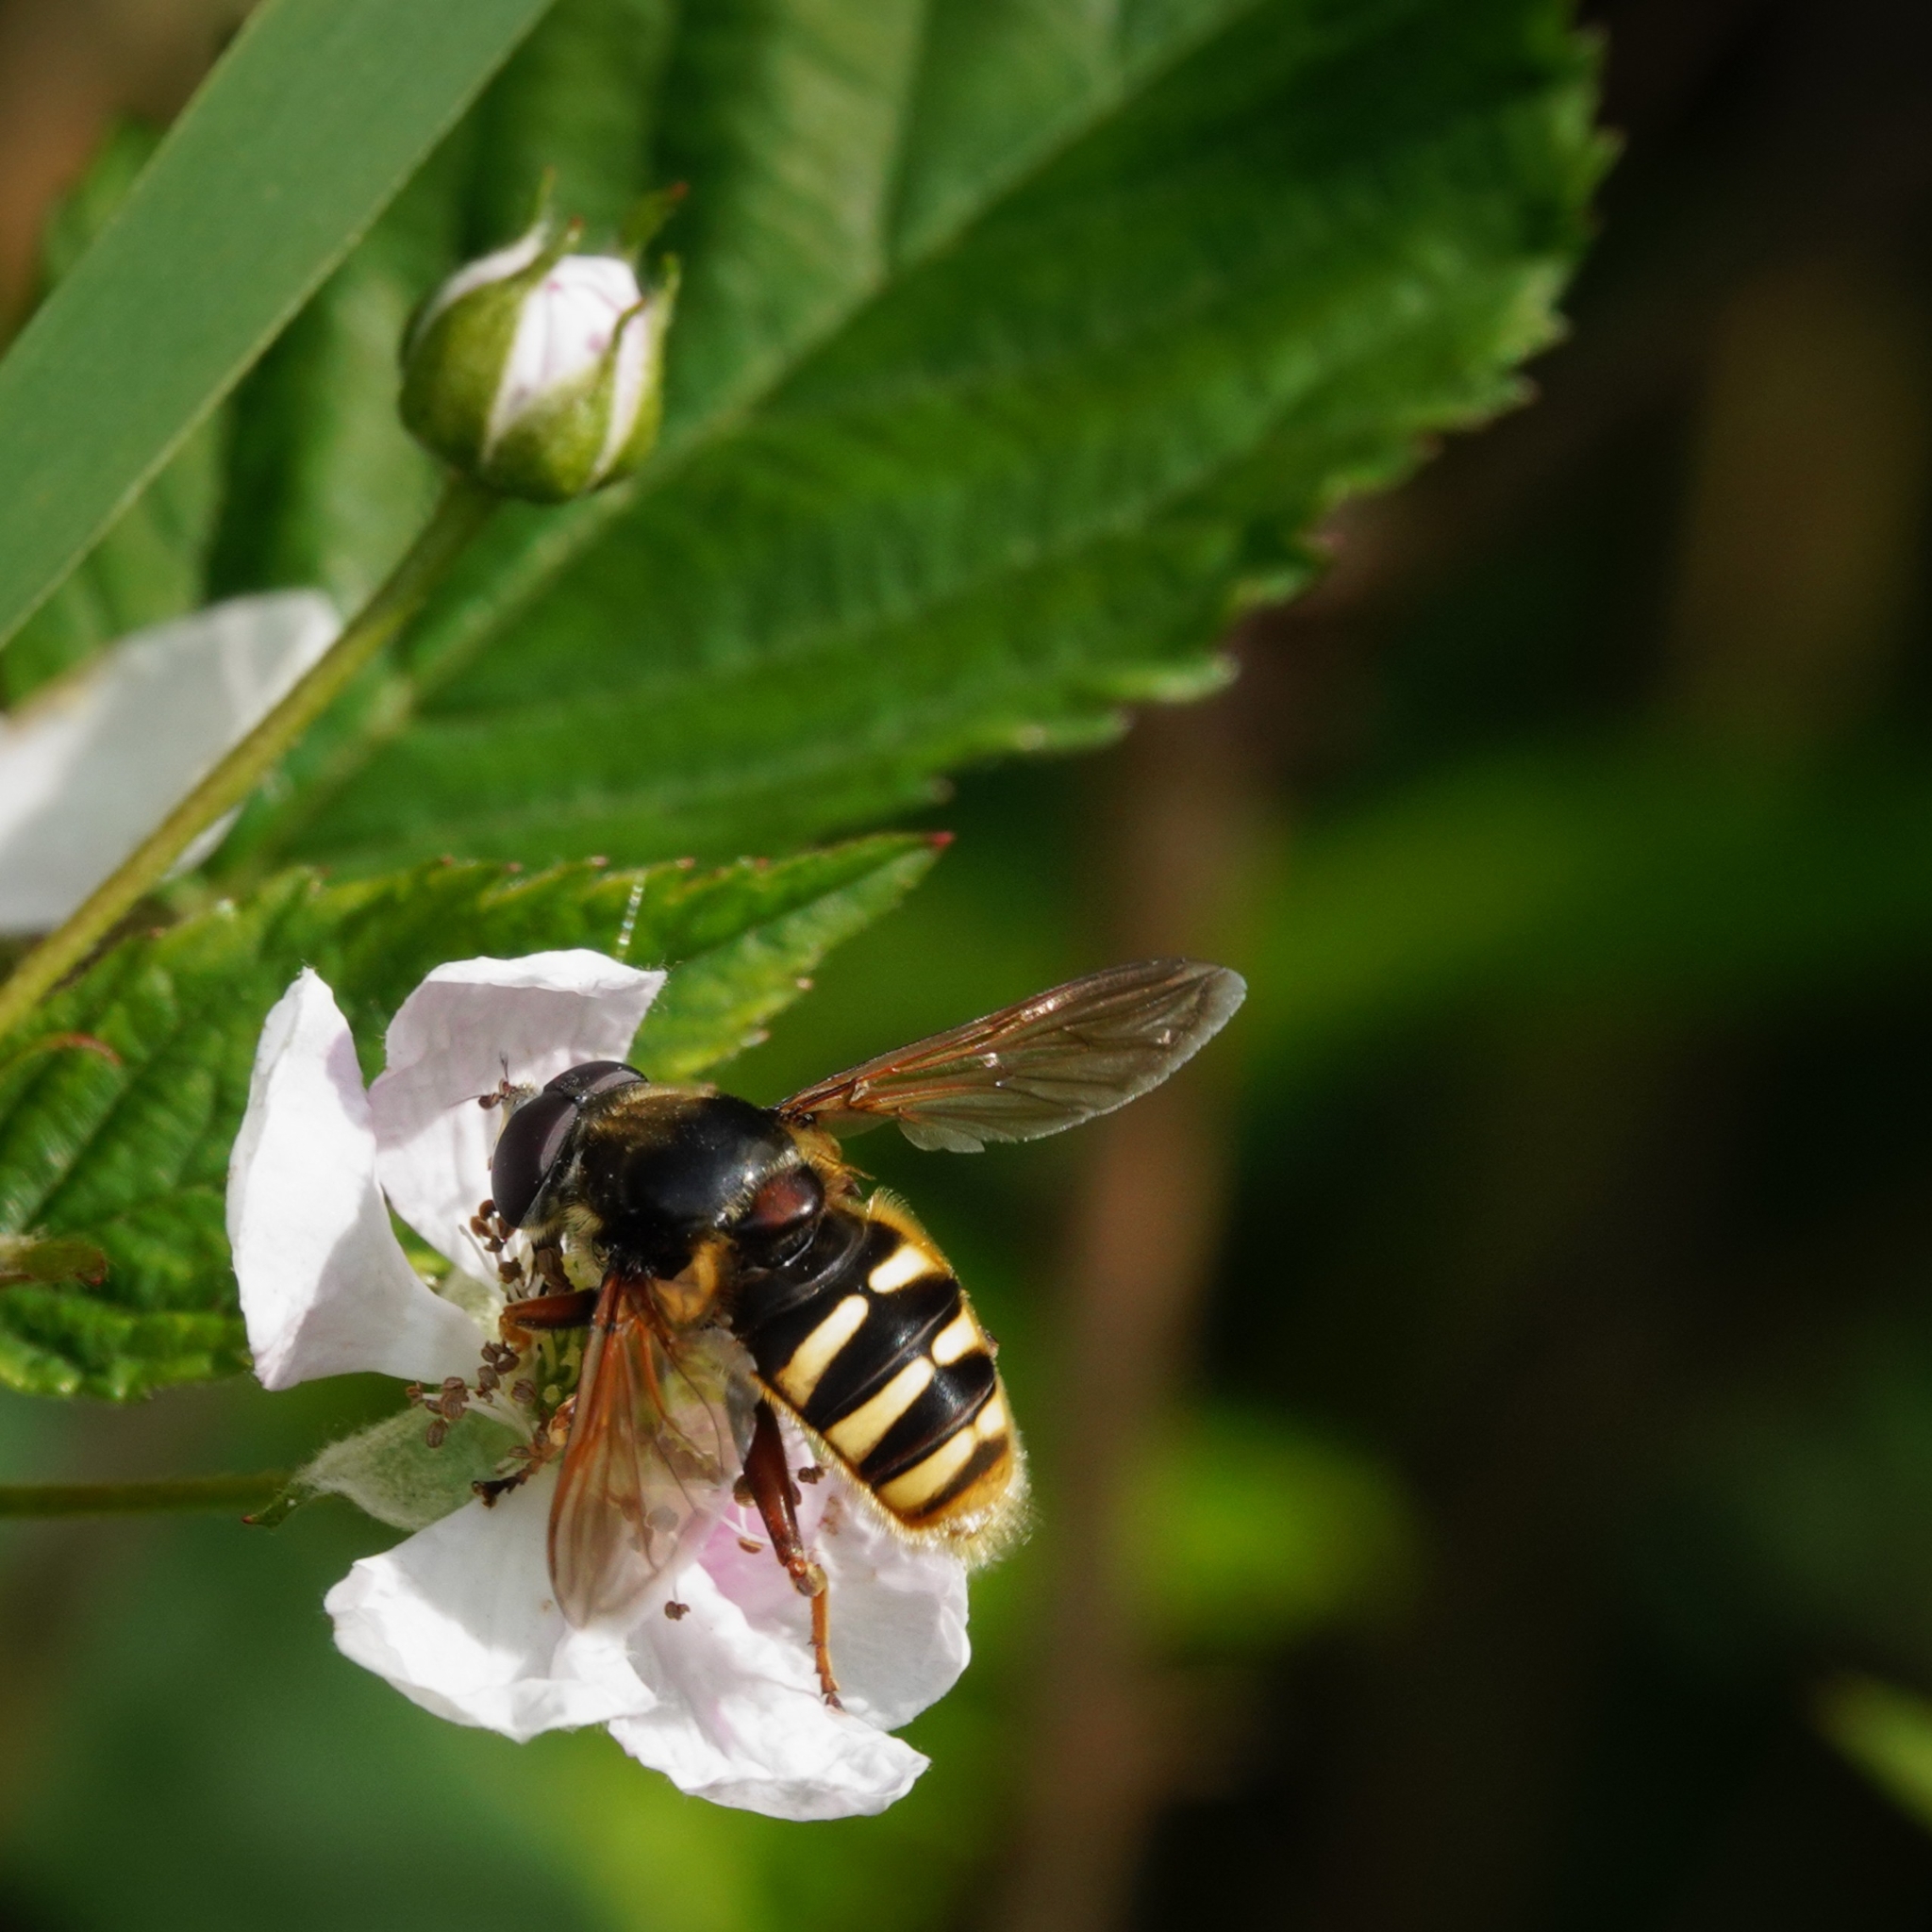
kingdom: Animalia
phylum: Arthropoda
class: Insecta
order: Diptera
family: Syrphidae
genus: Sericomyia
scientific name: Sericomyia silentis
